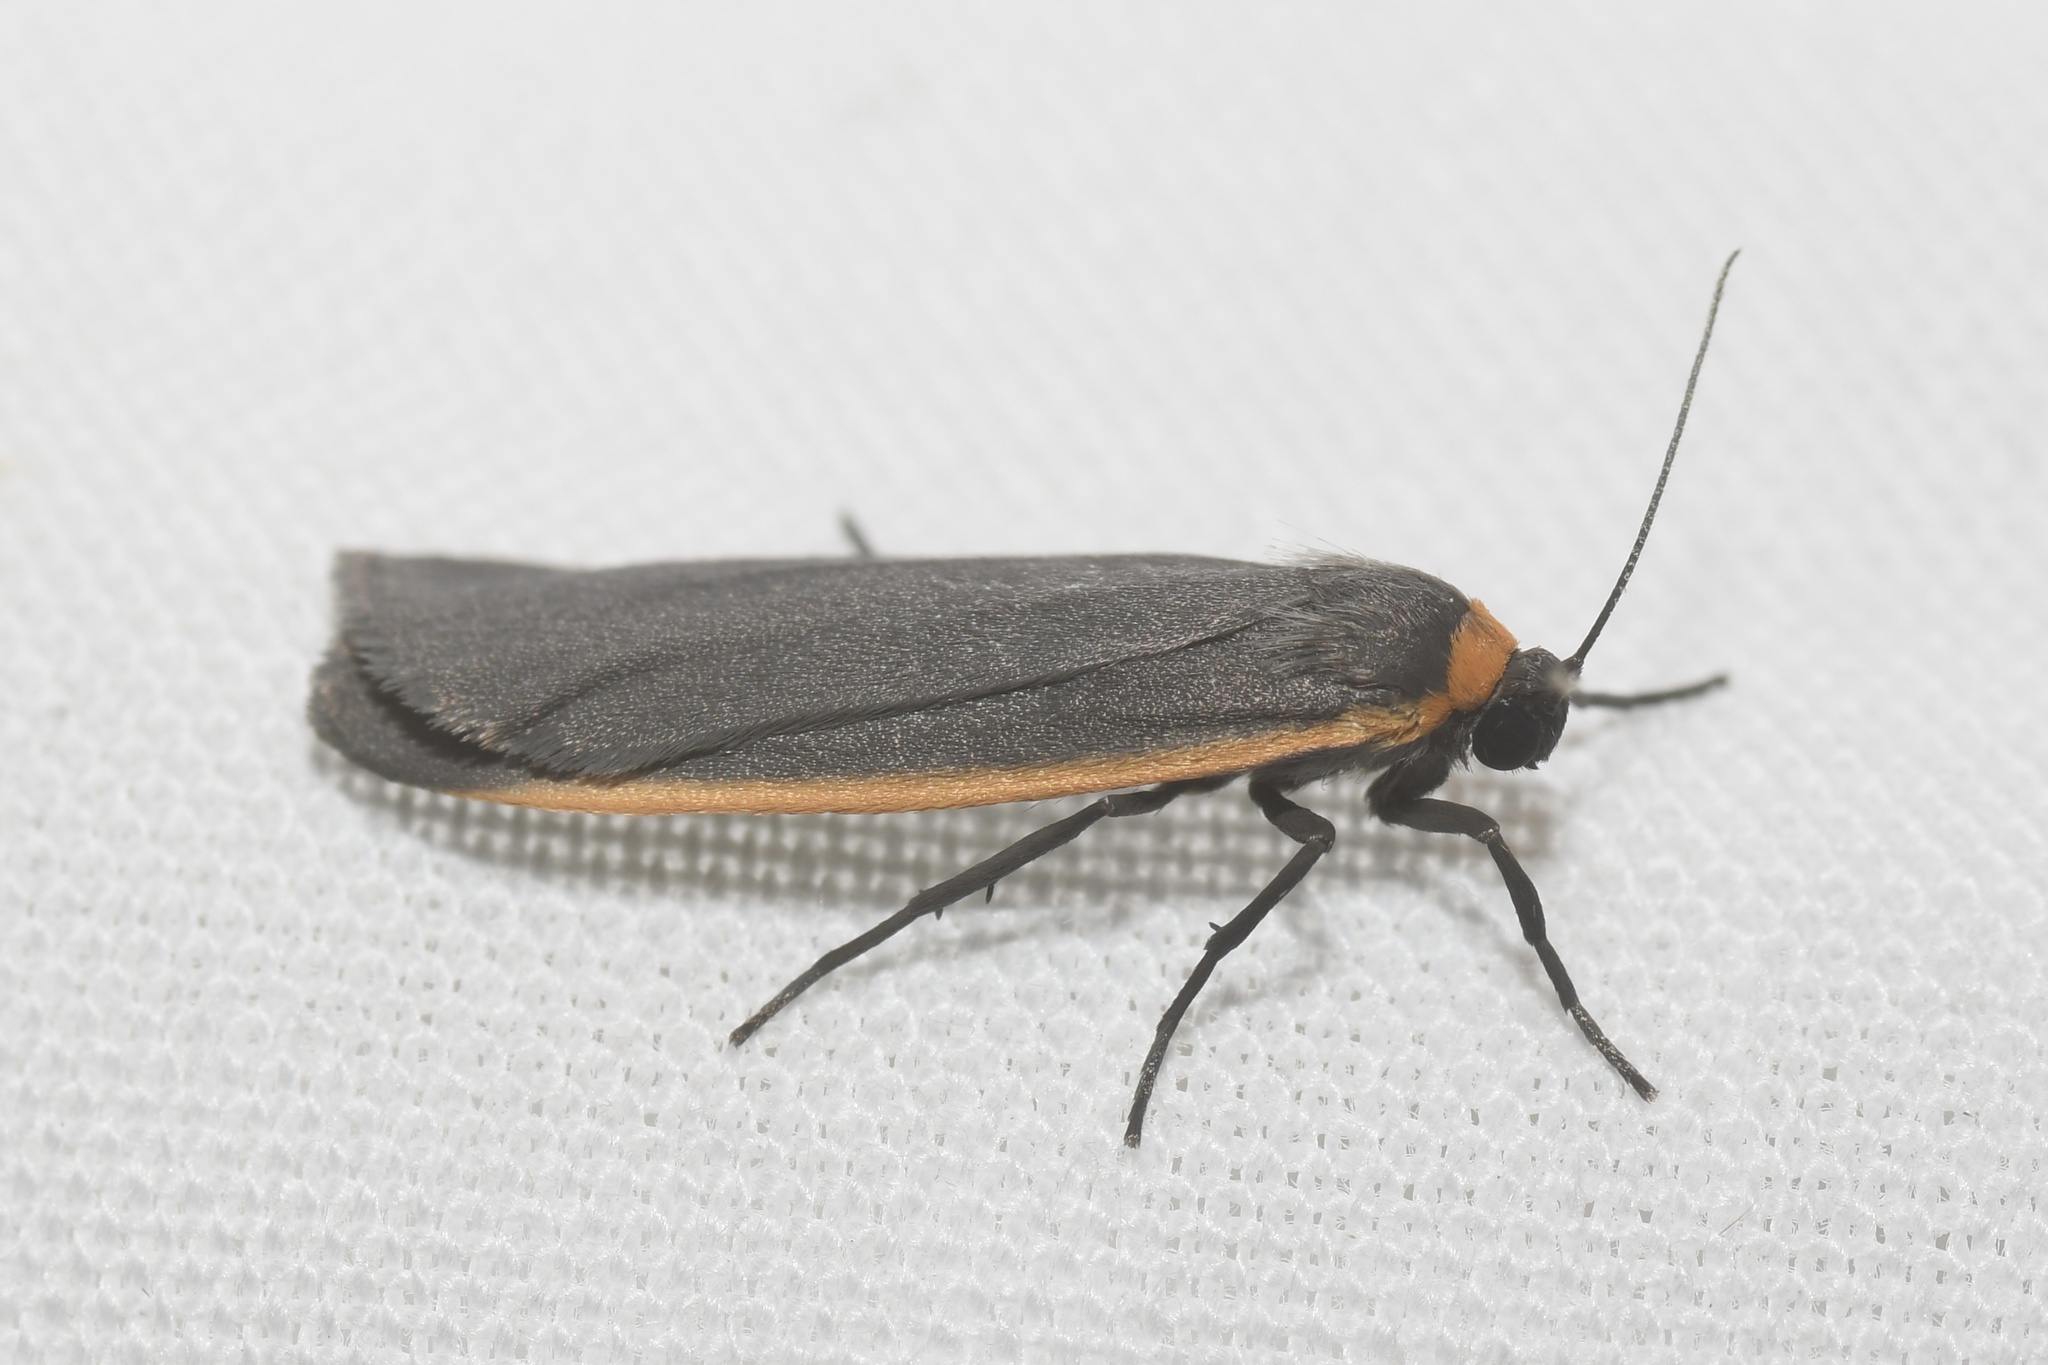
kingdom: Animalia
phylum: Arthropoda
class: Insecta
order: Lepidoptera
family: Erebidae
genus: Manulea
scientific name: Manulea bicolor
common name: Bicolored moth
